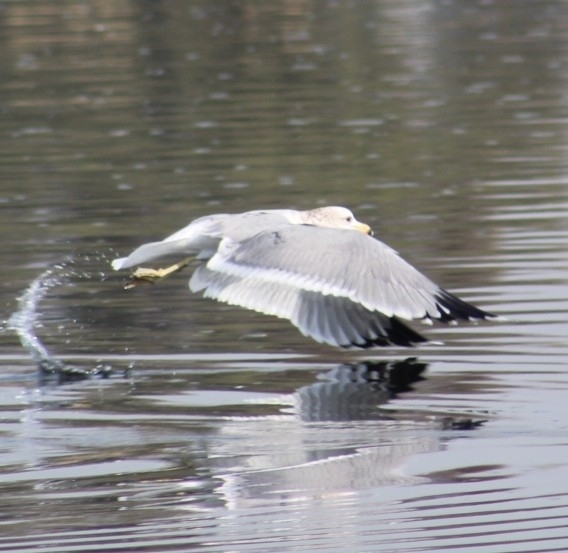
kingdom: Animalia
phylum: Chordata
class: Aves
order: Charadriiformes
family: Laridae
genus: Larus
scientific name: Larus californicus
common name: California gull
